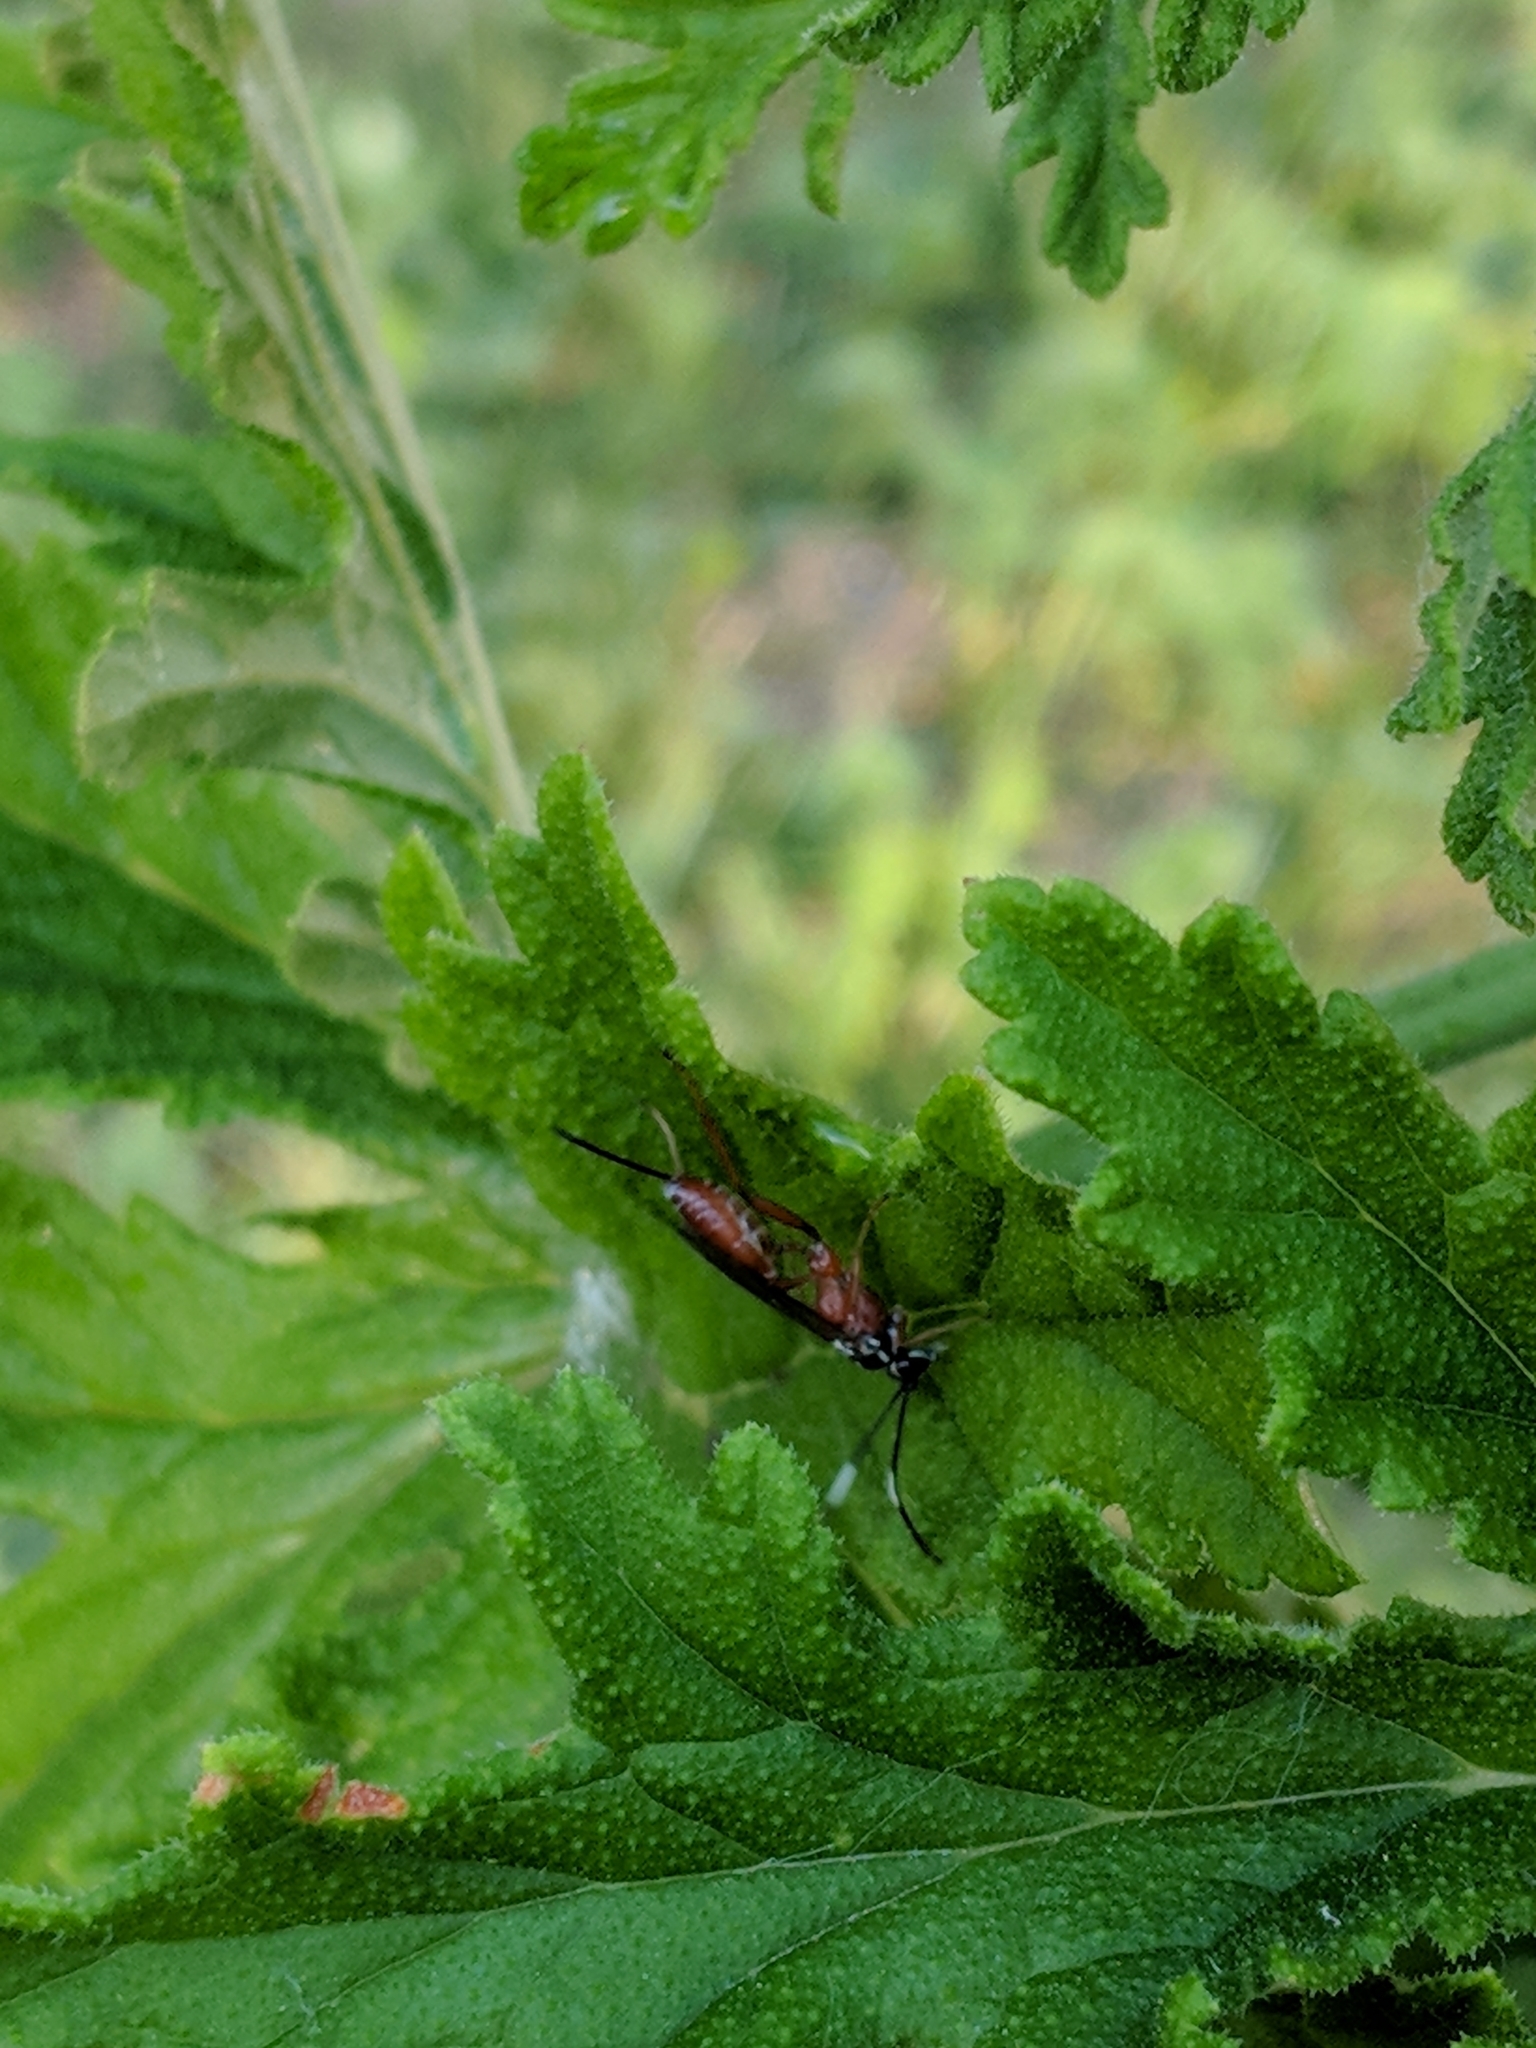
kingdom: Animalia
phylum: Arthropoda
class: Insecta
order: Hymenoptera
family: Ichneumonidae
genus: Mesostenus
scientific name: Mesostenus thoracicus
